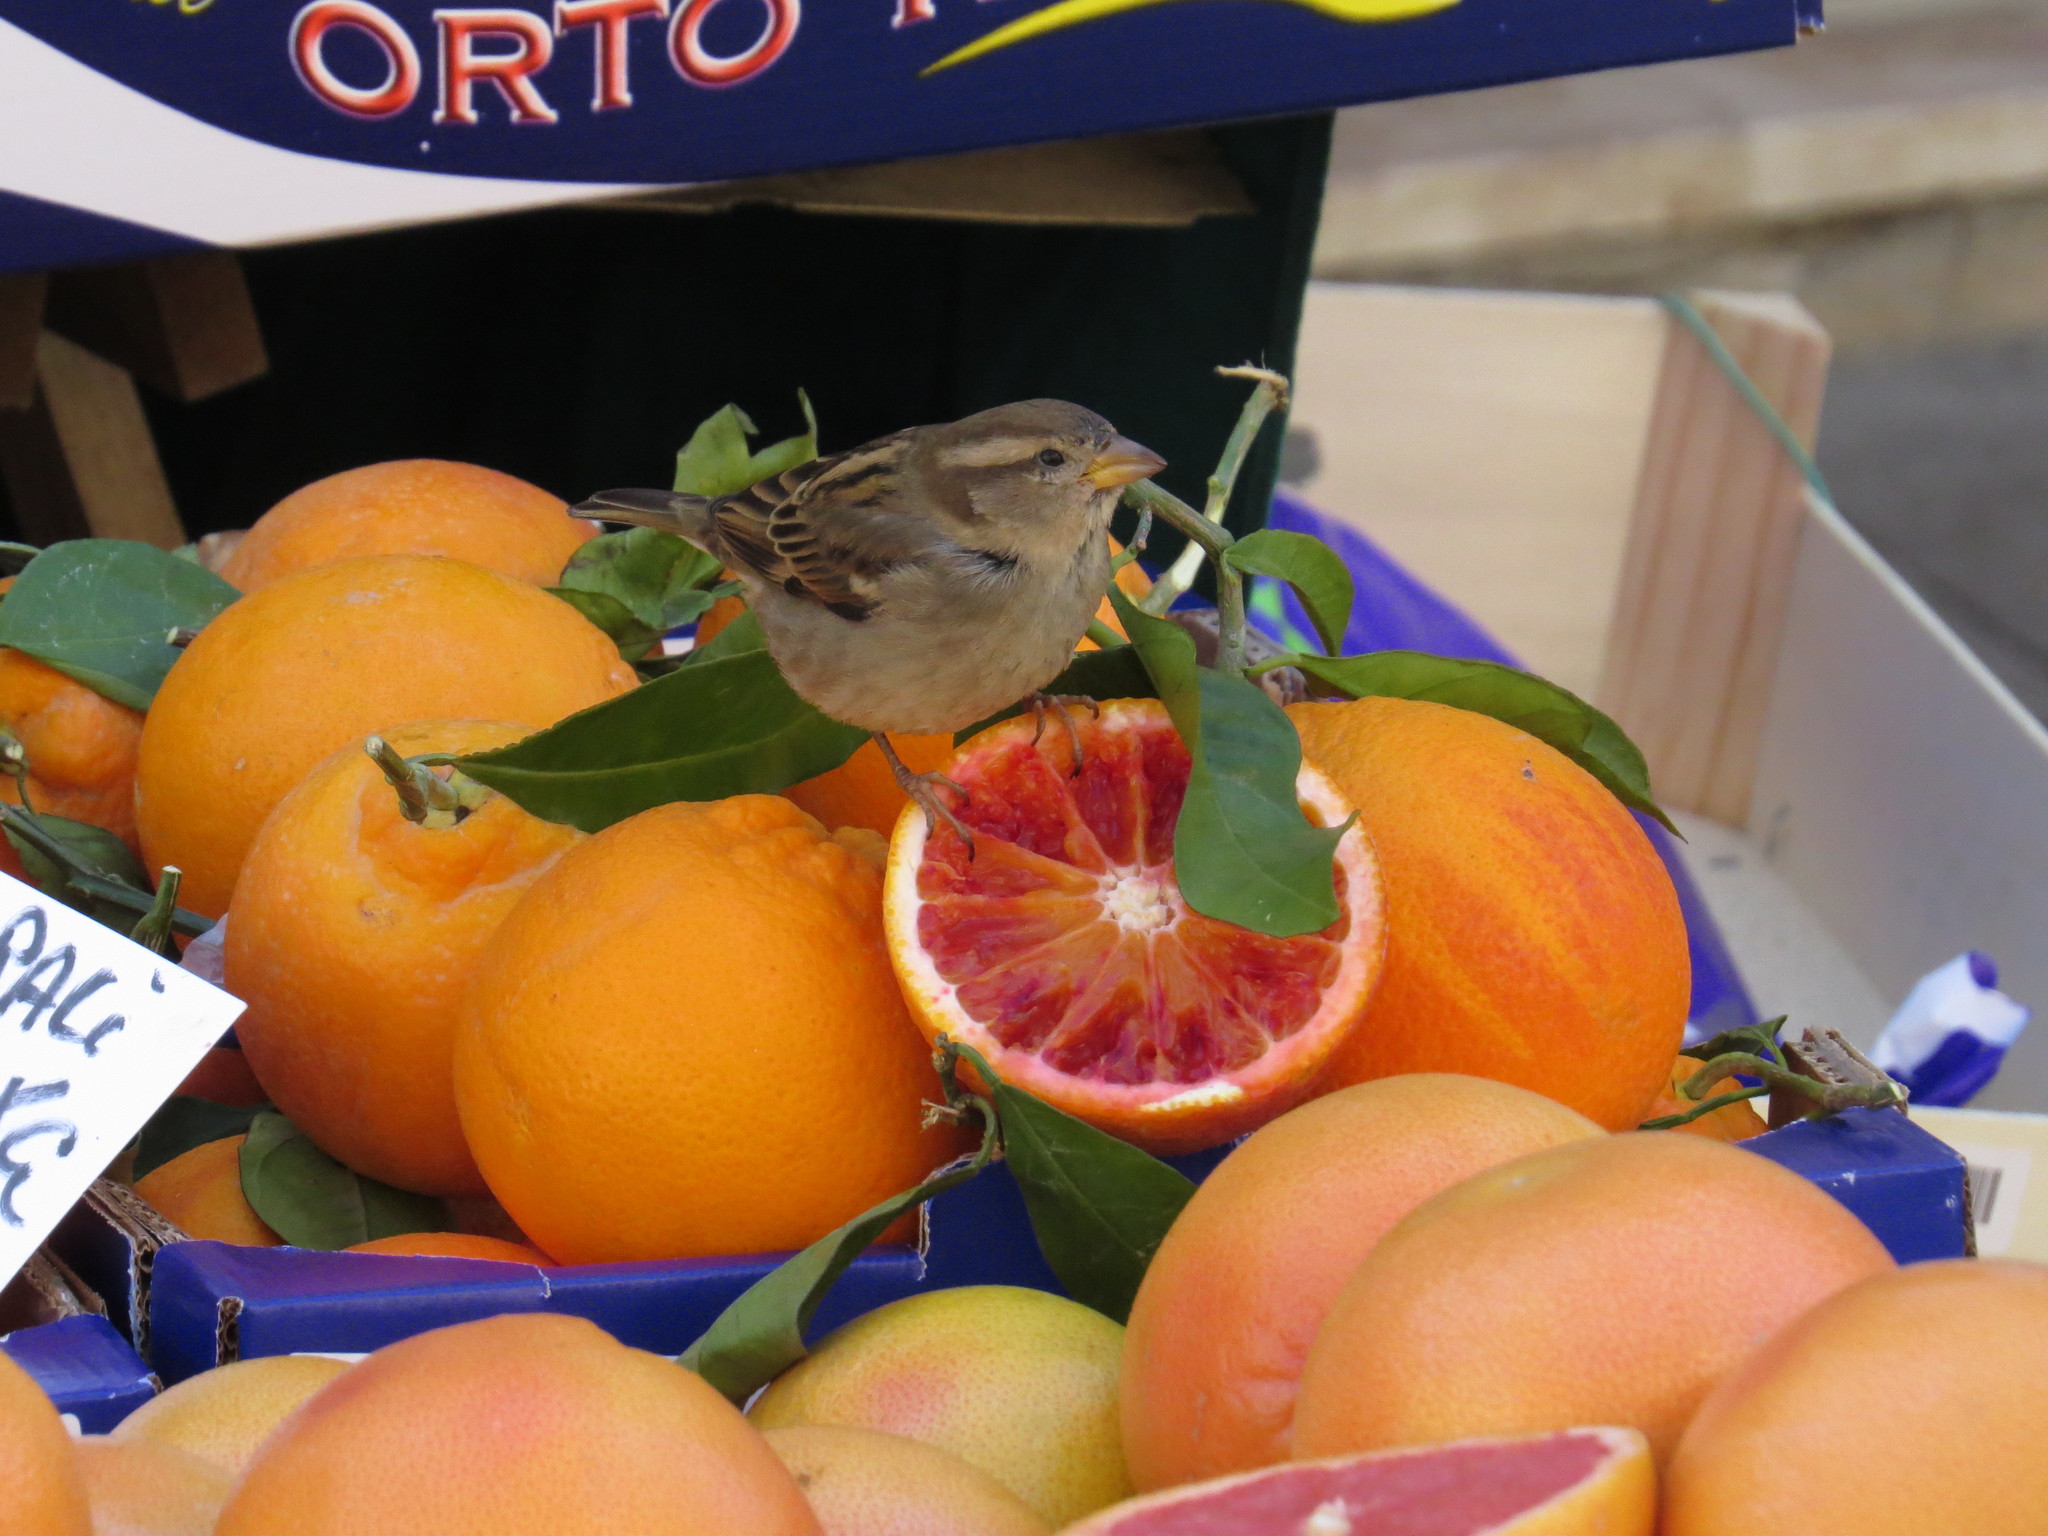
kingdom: Animalia
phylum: Chordata
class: Aves
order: Passeriformes
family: Passeridae
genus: Passer
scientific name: Passer italiae
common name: Italian sparrow
